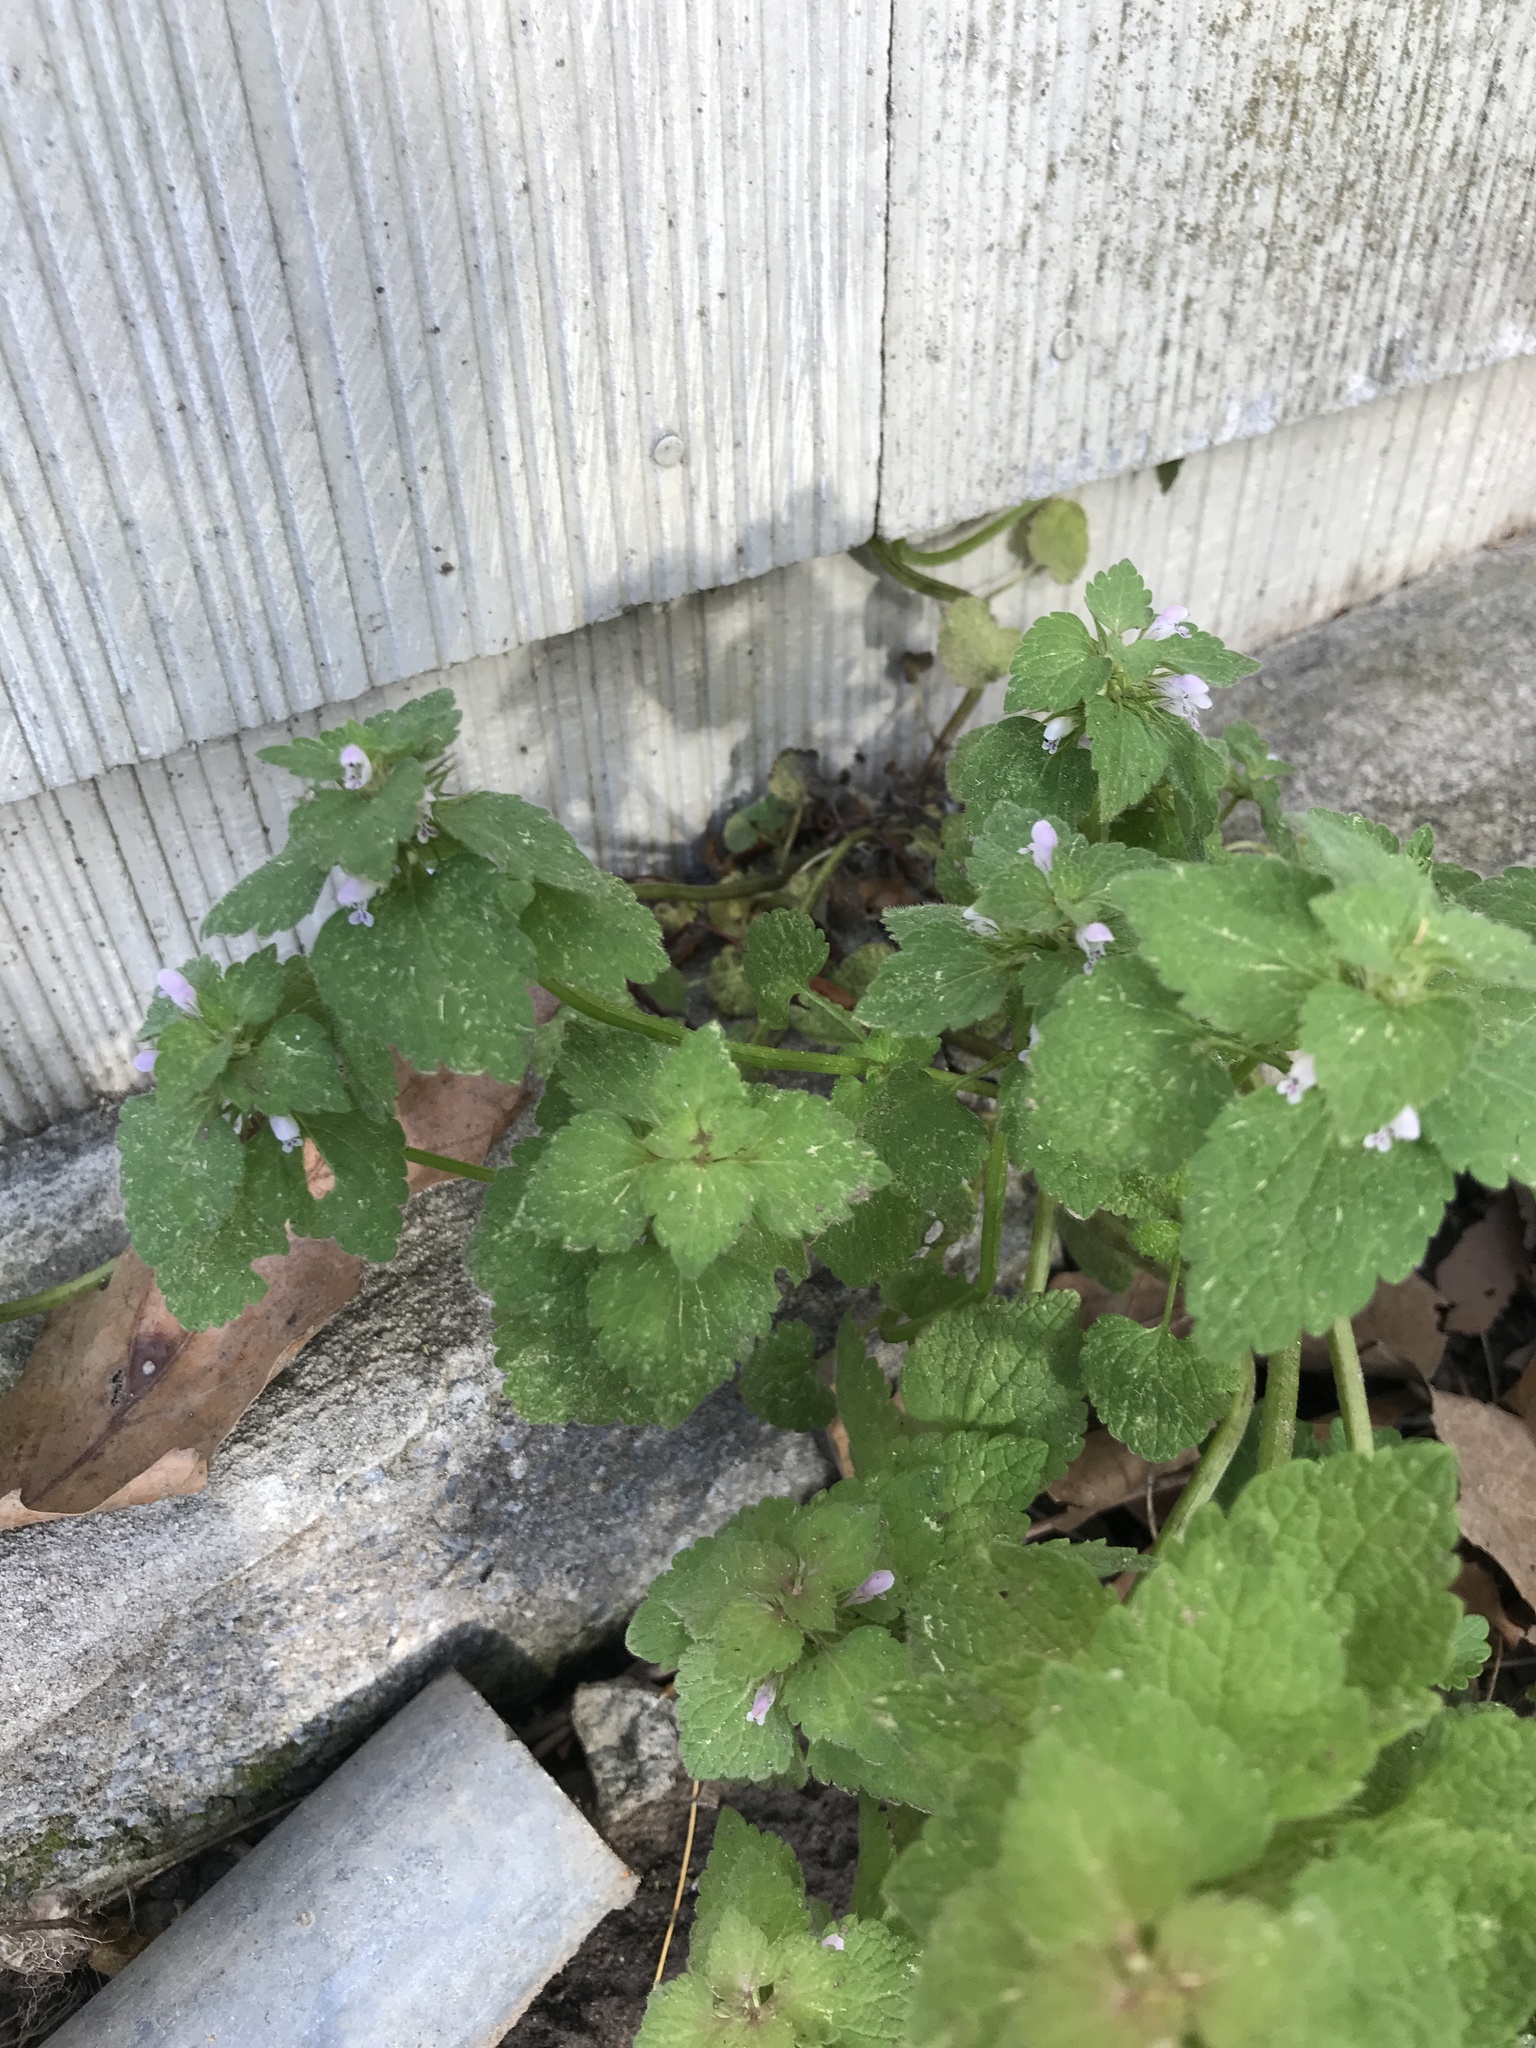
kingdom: Plantae
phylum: Tracheophyta
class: Magnoliopsida
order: Lamiales
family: Lamiaceae
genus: Lamium
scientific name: Lamium purpureum
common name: Red dead-nettle
